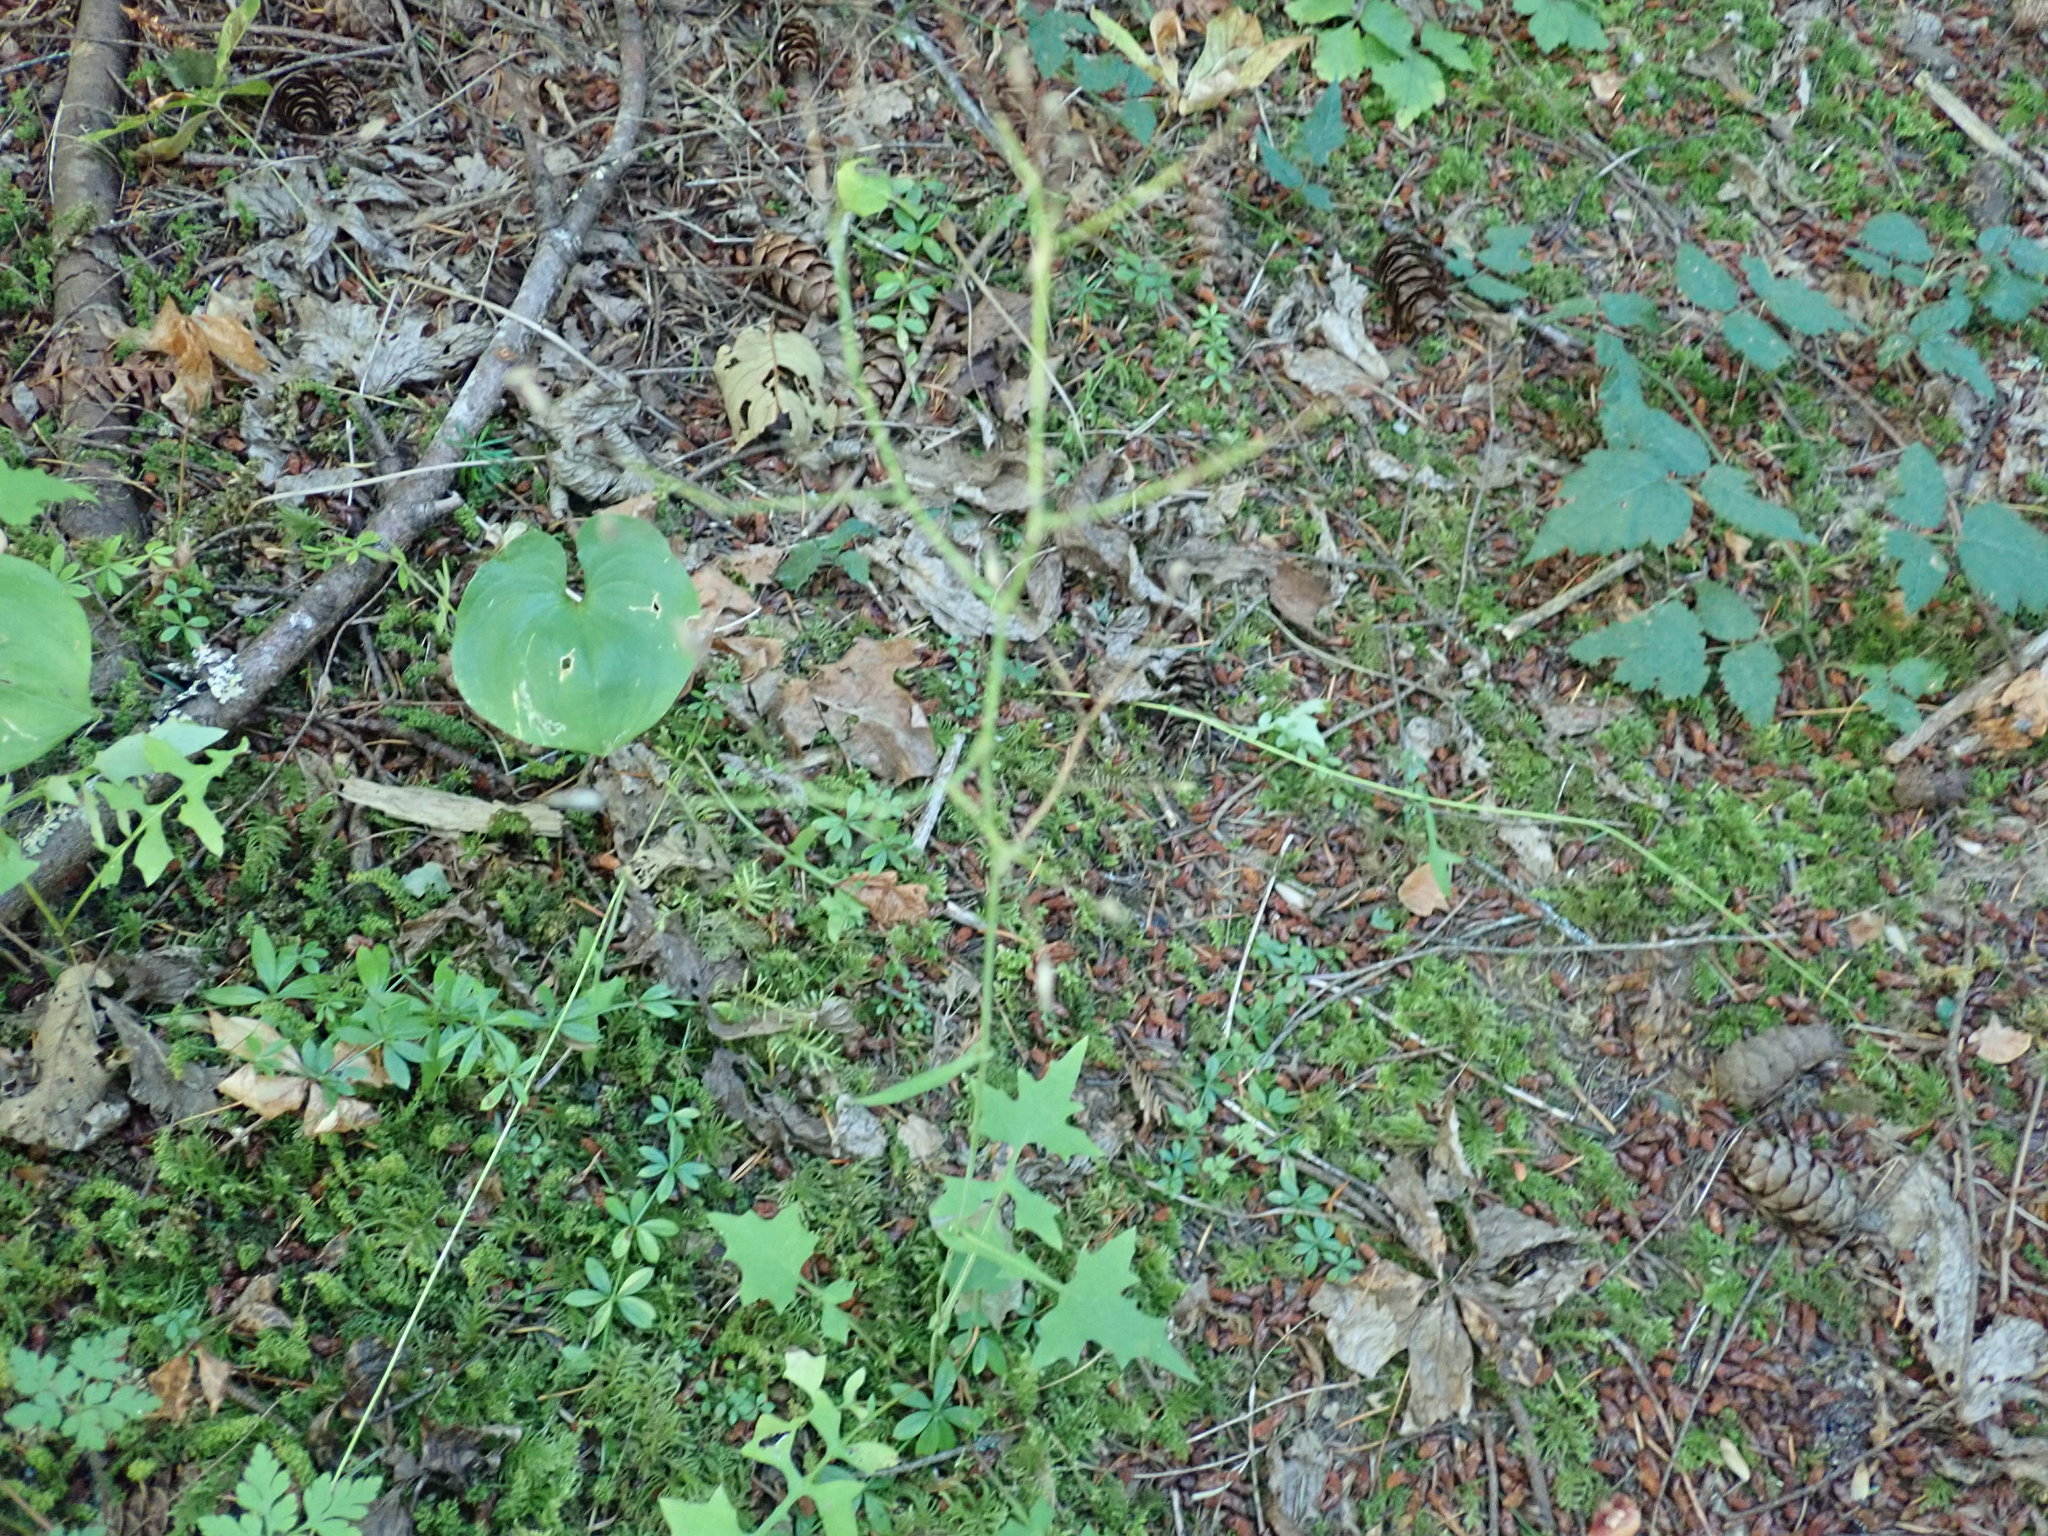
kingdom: Plantae
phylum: Tracheophyta
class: Magnoliopsida
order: Asterales
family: Asteraceae
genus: Mycelis
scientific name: Mycelis muralis
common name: Wall lettuce
